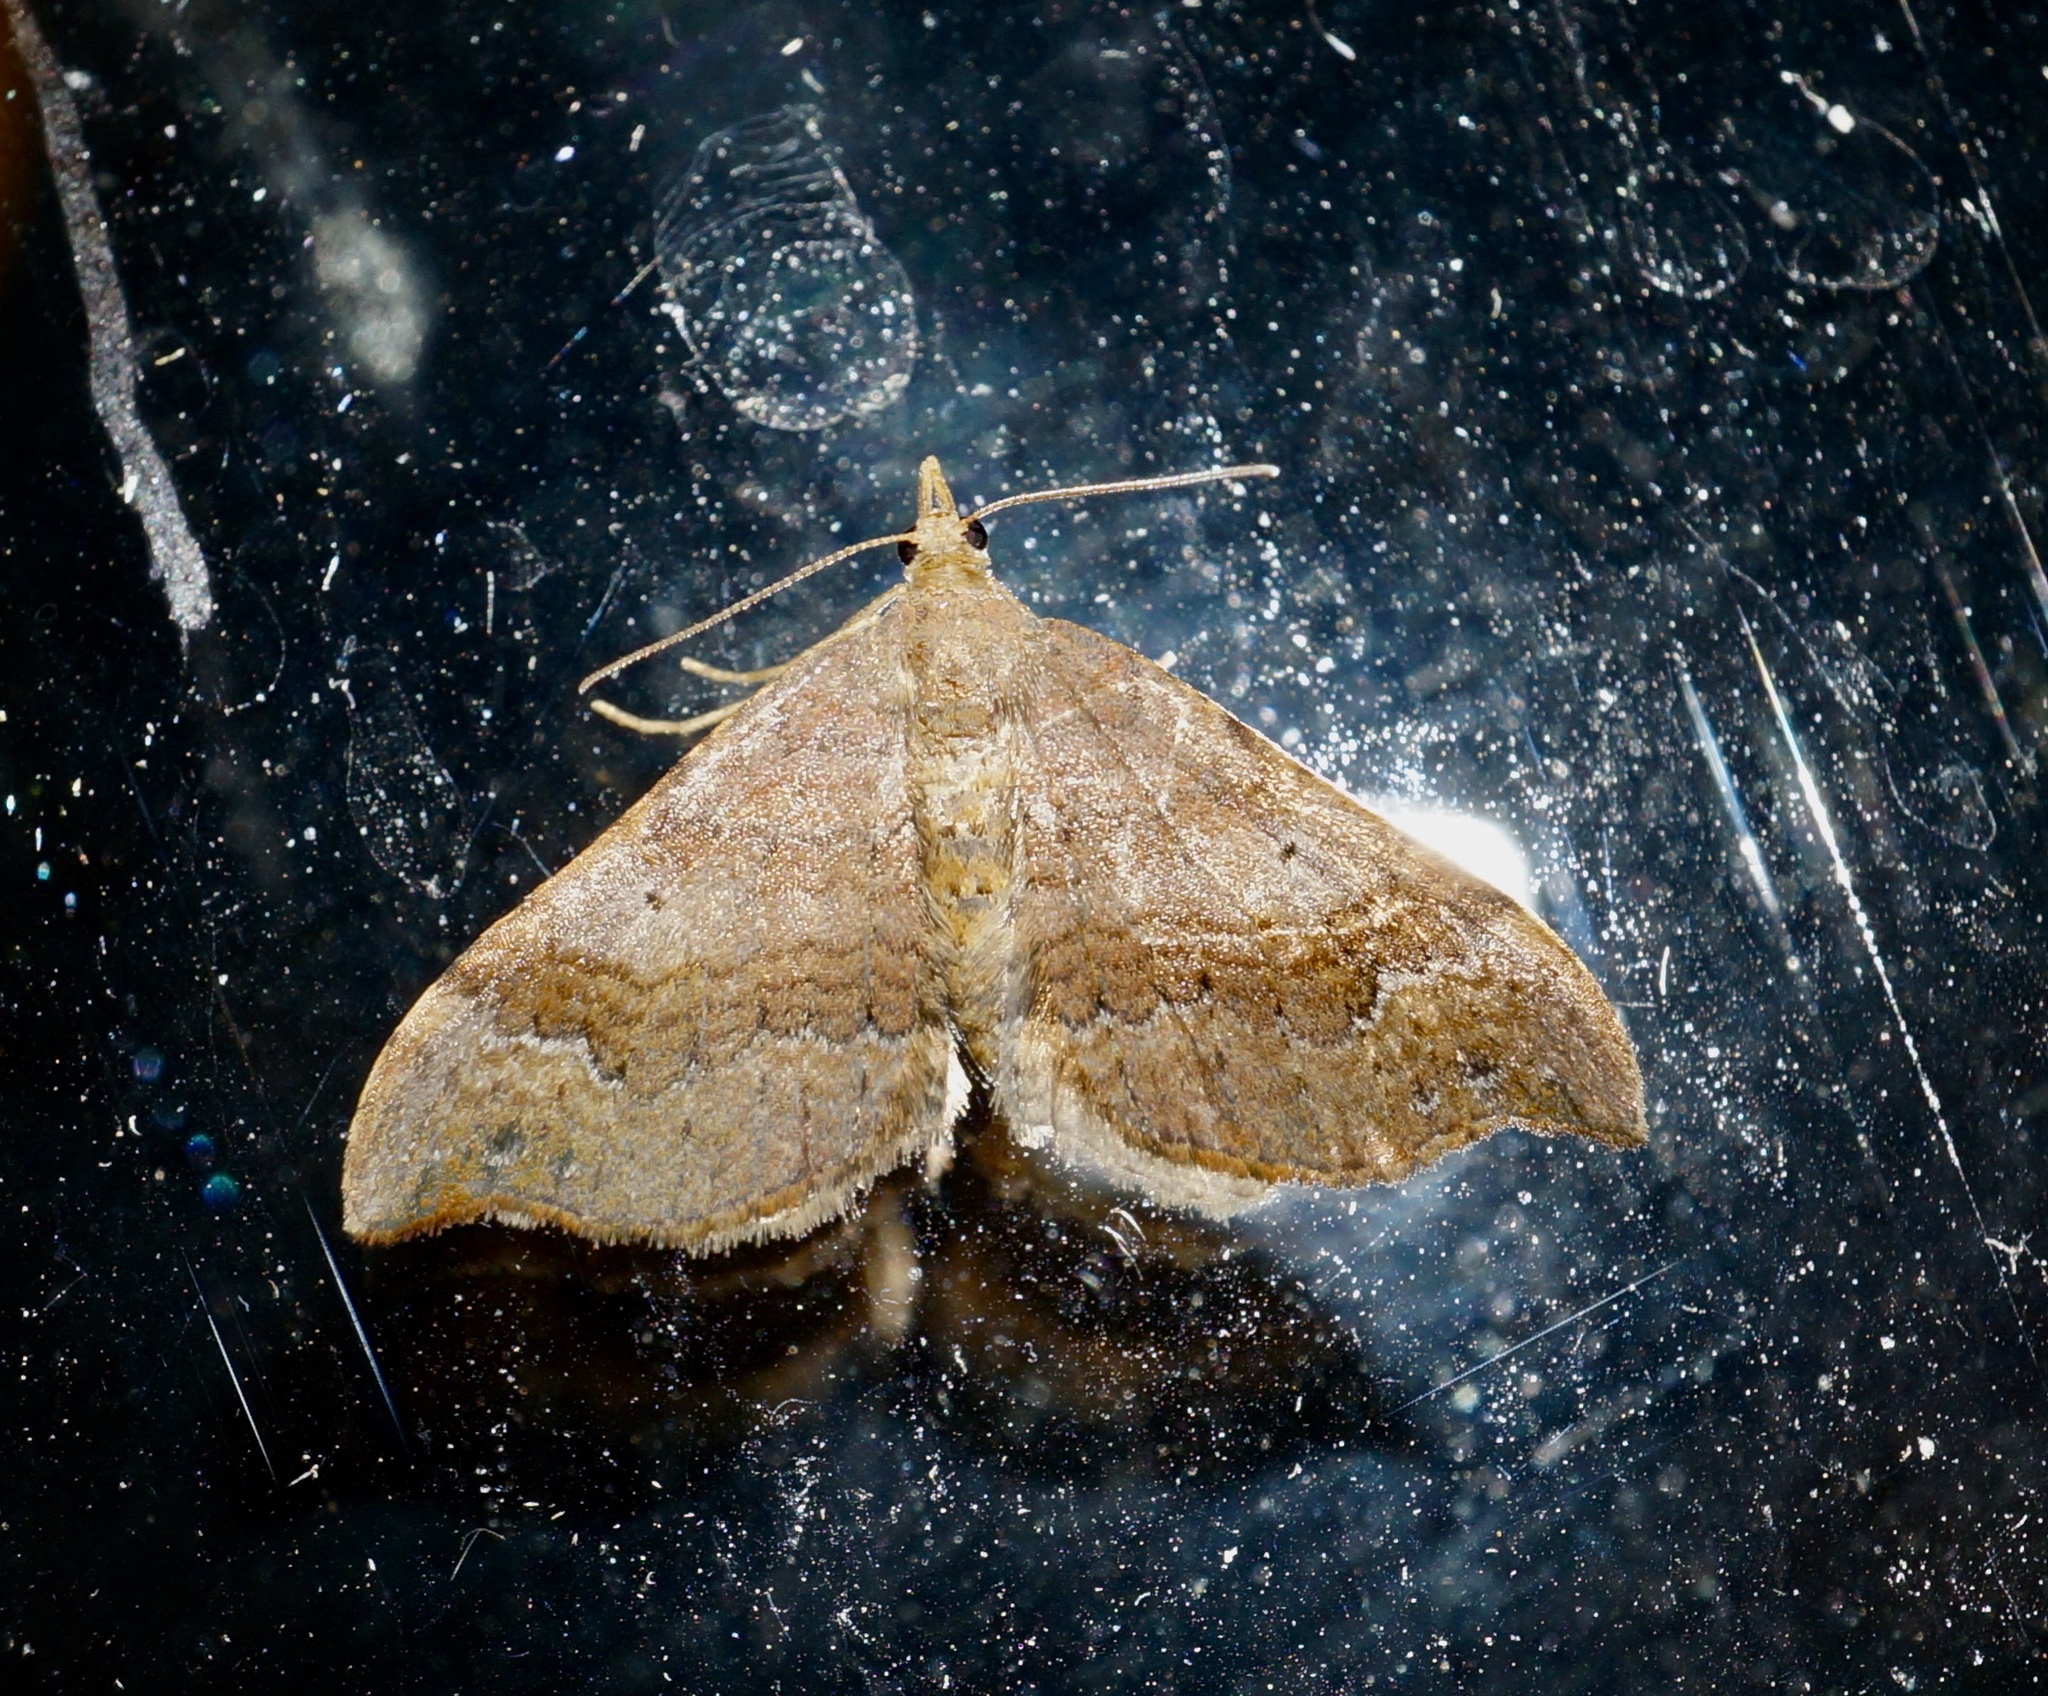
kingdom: Animalia
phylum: Arthropoda
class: Insecta
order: Lepidoptera
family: Geometridae
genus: Homodotis
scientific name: Homodotis megaspilata
